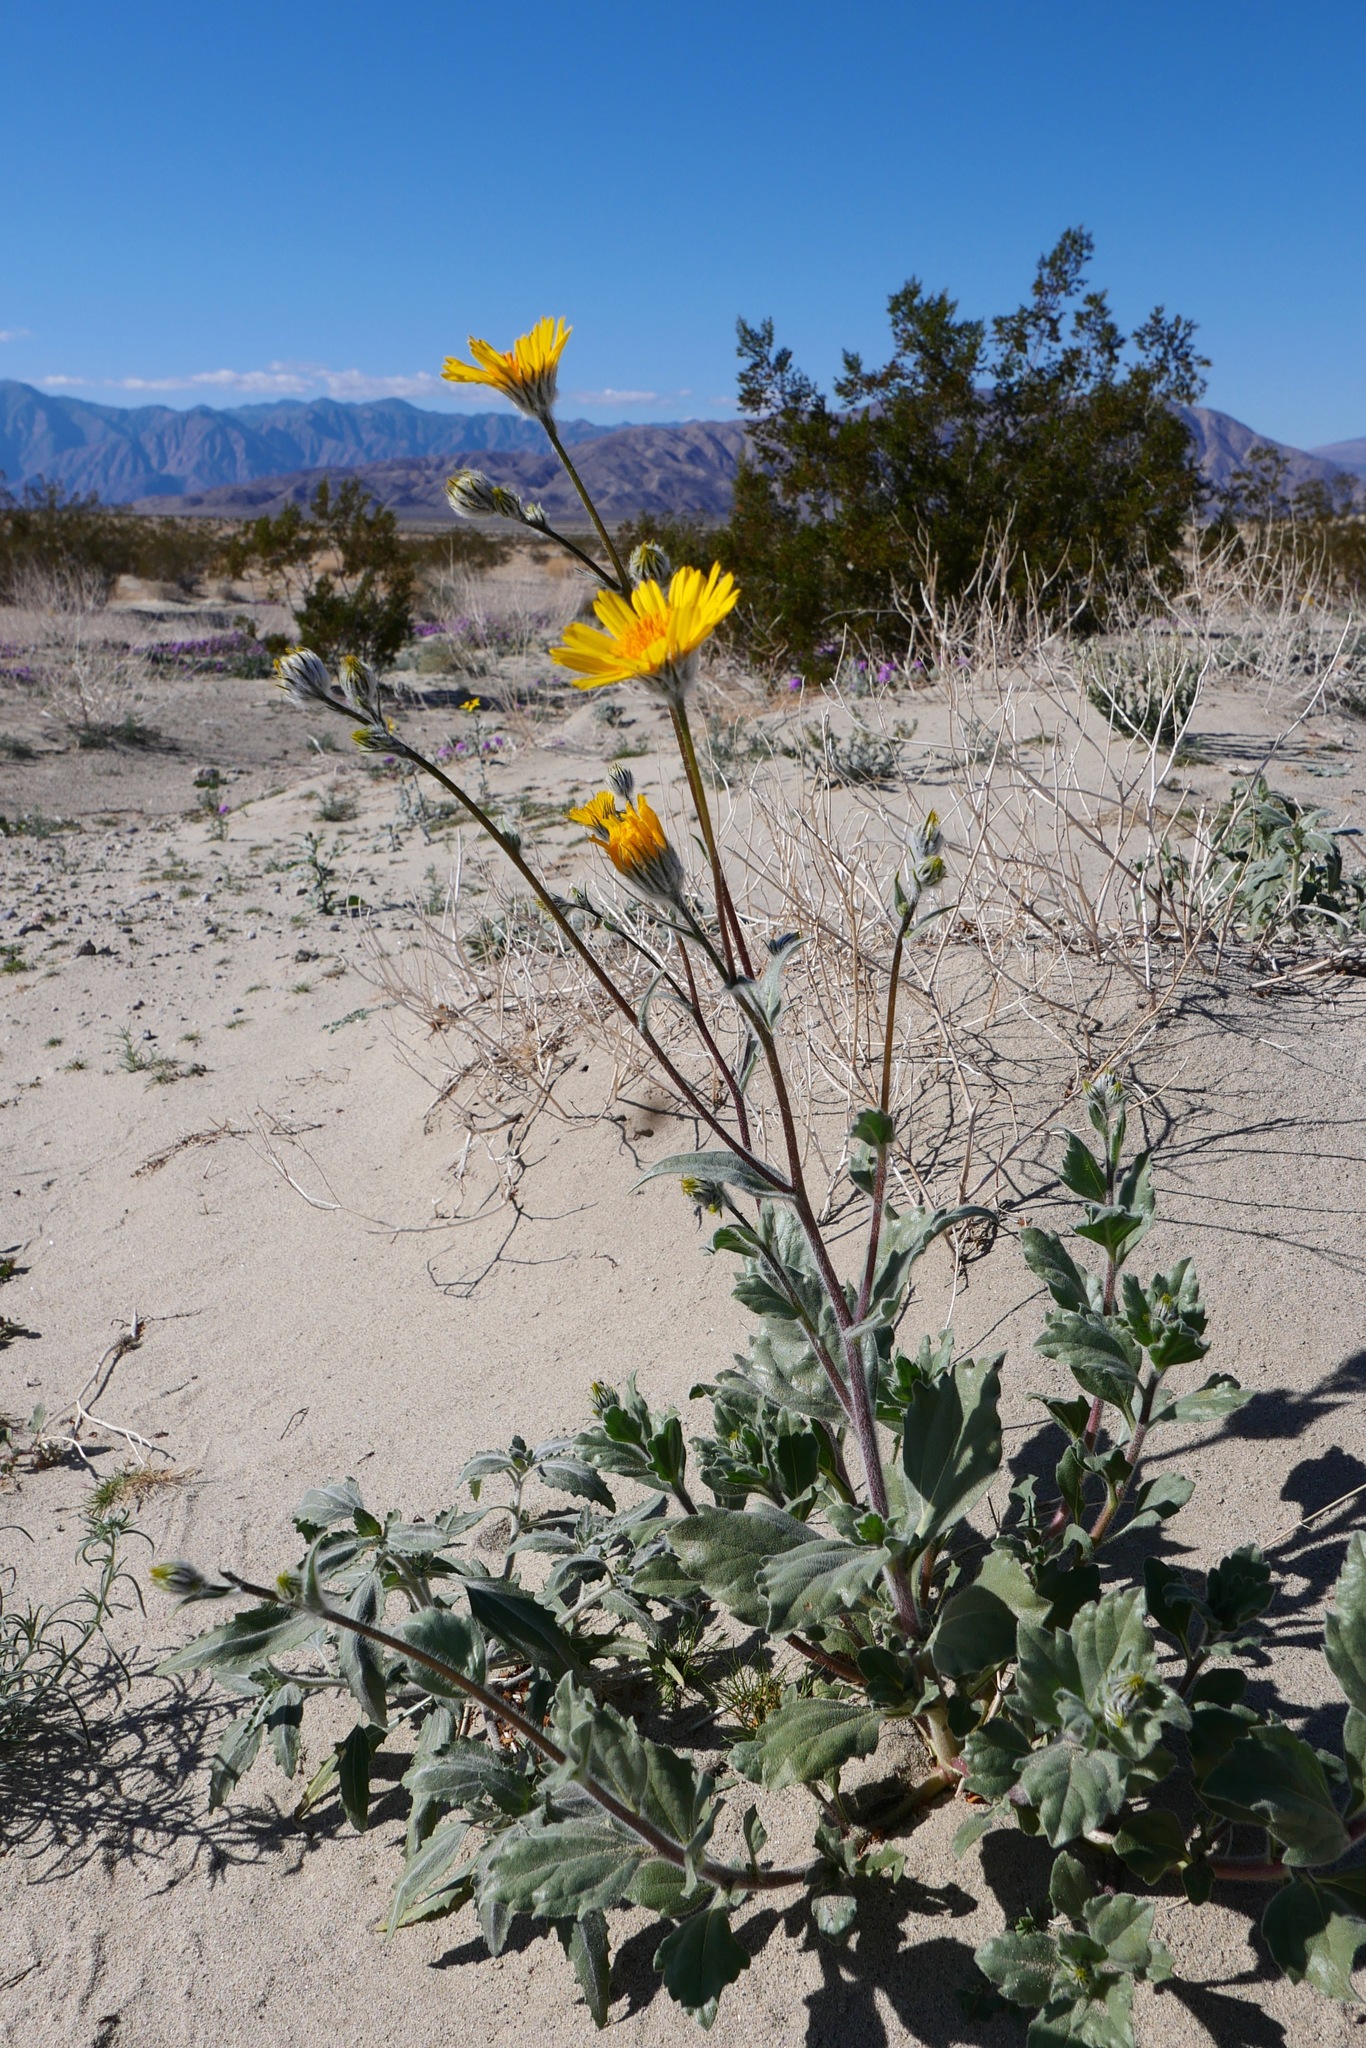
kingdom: Plantae
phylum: Tracheophyta
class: Magnoliopsida
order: Asterales
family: Asteraceae
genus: Geraea
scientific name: Geraea canescens
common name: Desert-gold
